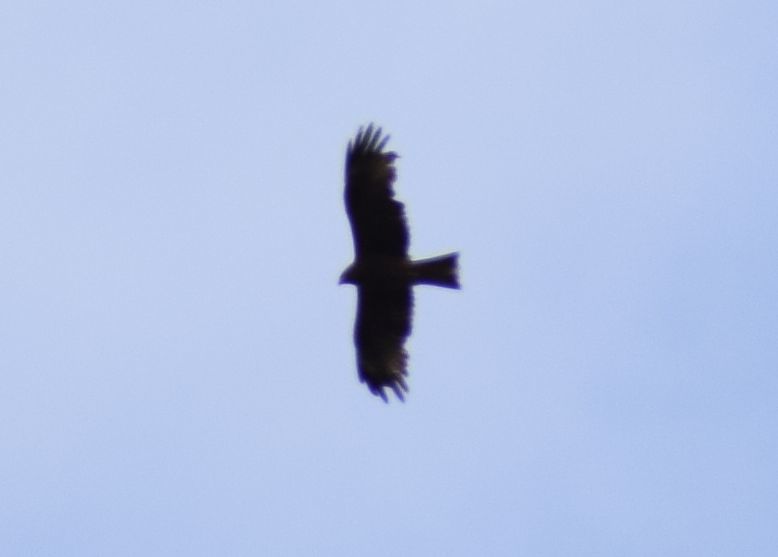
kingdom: Animalia
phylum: Chordata
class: Aves
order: Accipitriformes
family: Accipitridae
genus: Milvus
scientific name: Milvus migrans
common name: Black kite
